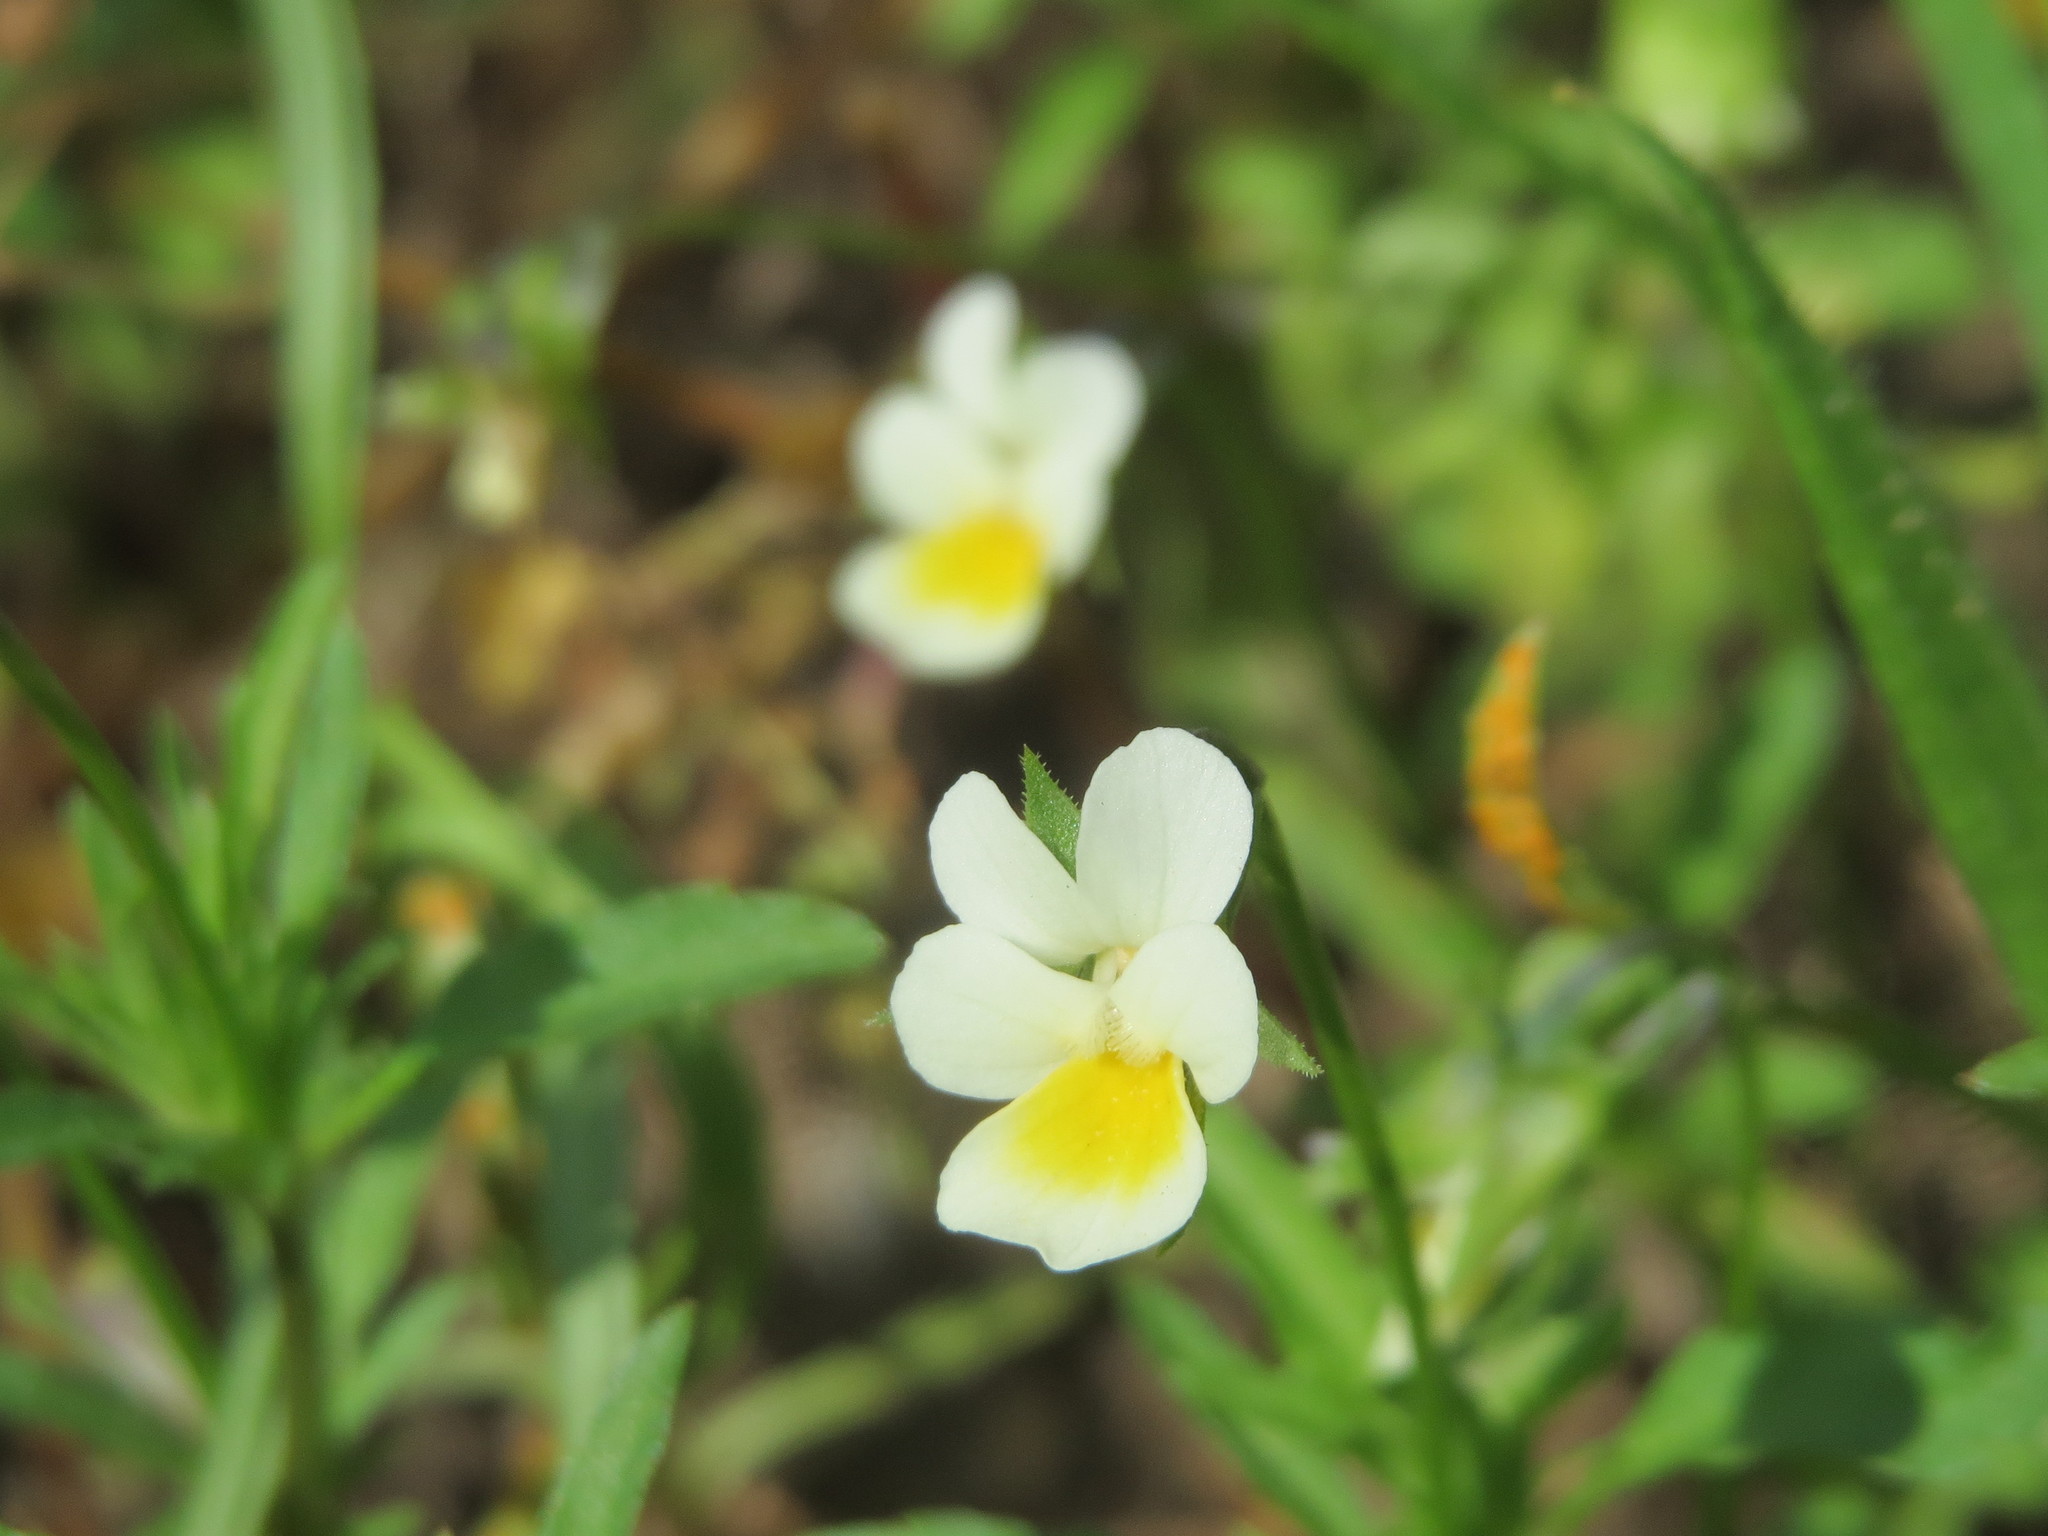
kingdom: Plantae
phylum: Tracheophyta
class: Magnoliopsida
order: Malpighiales
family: Violaceae
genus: Viola
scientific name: Viola arvensis
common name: Field pansy
